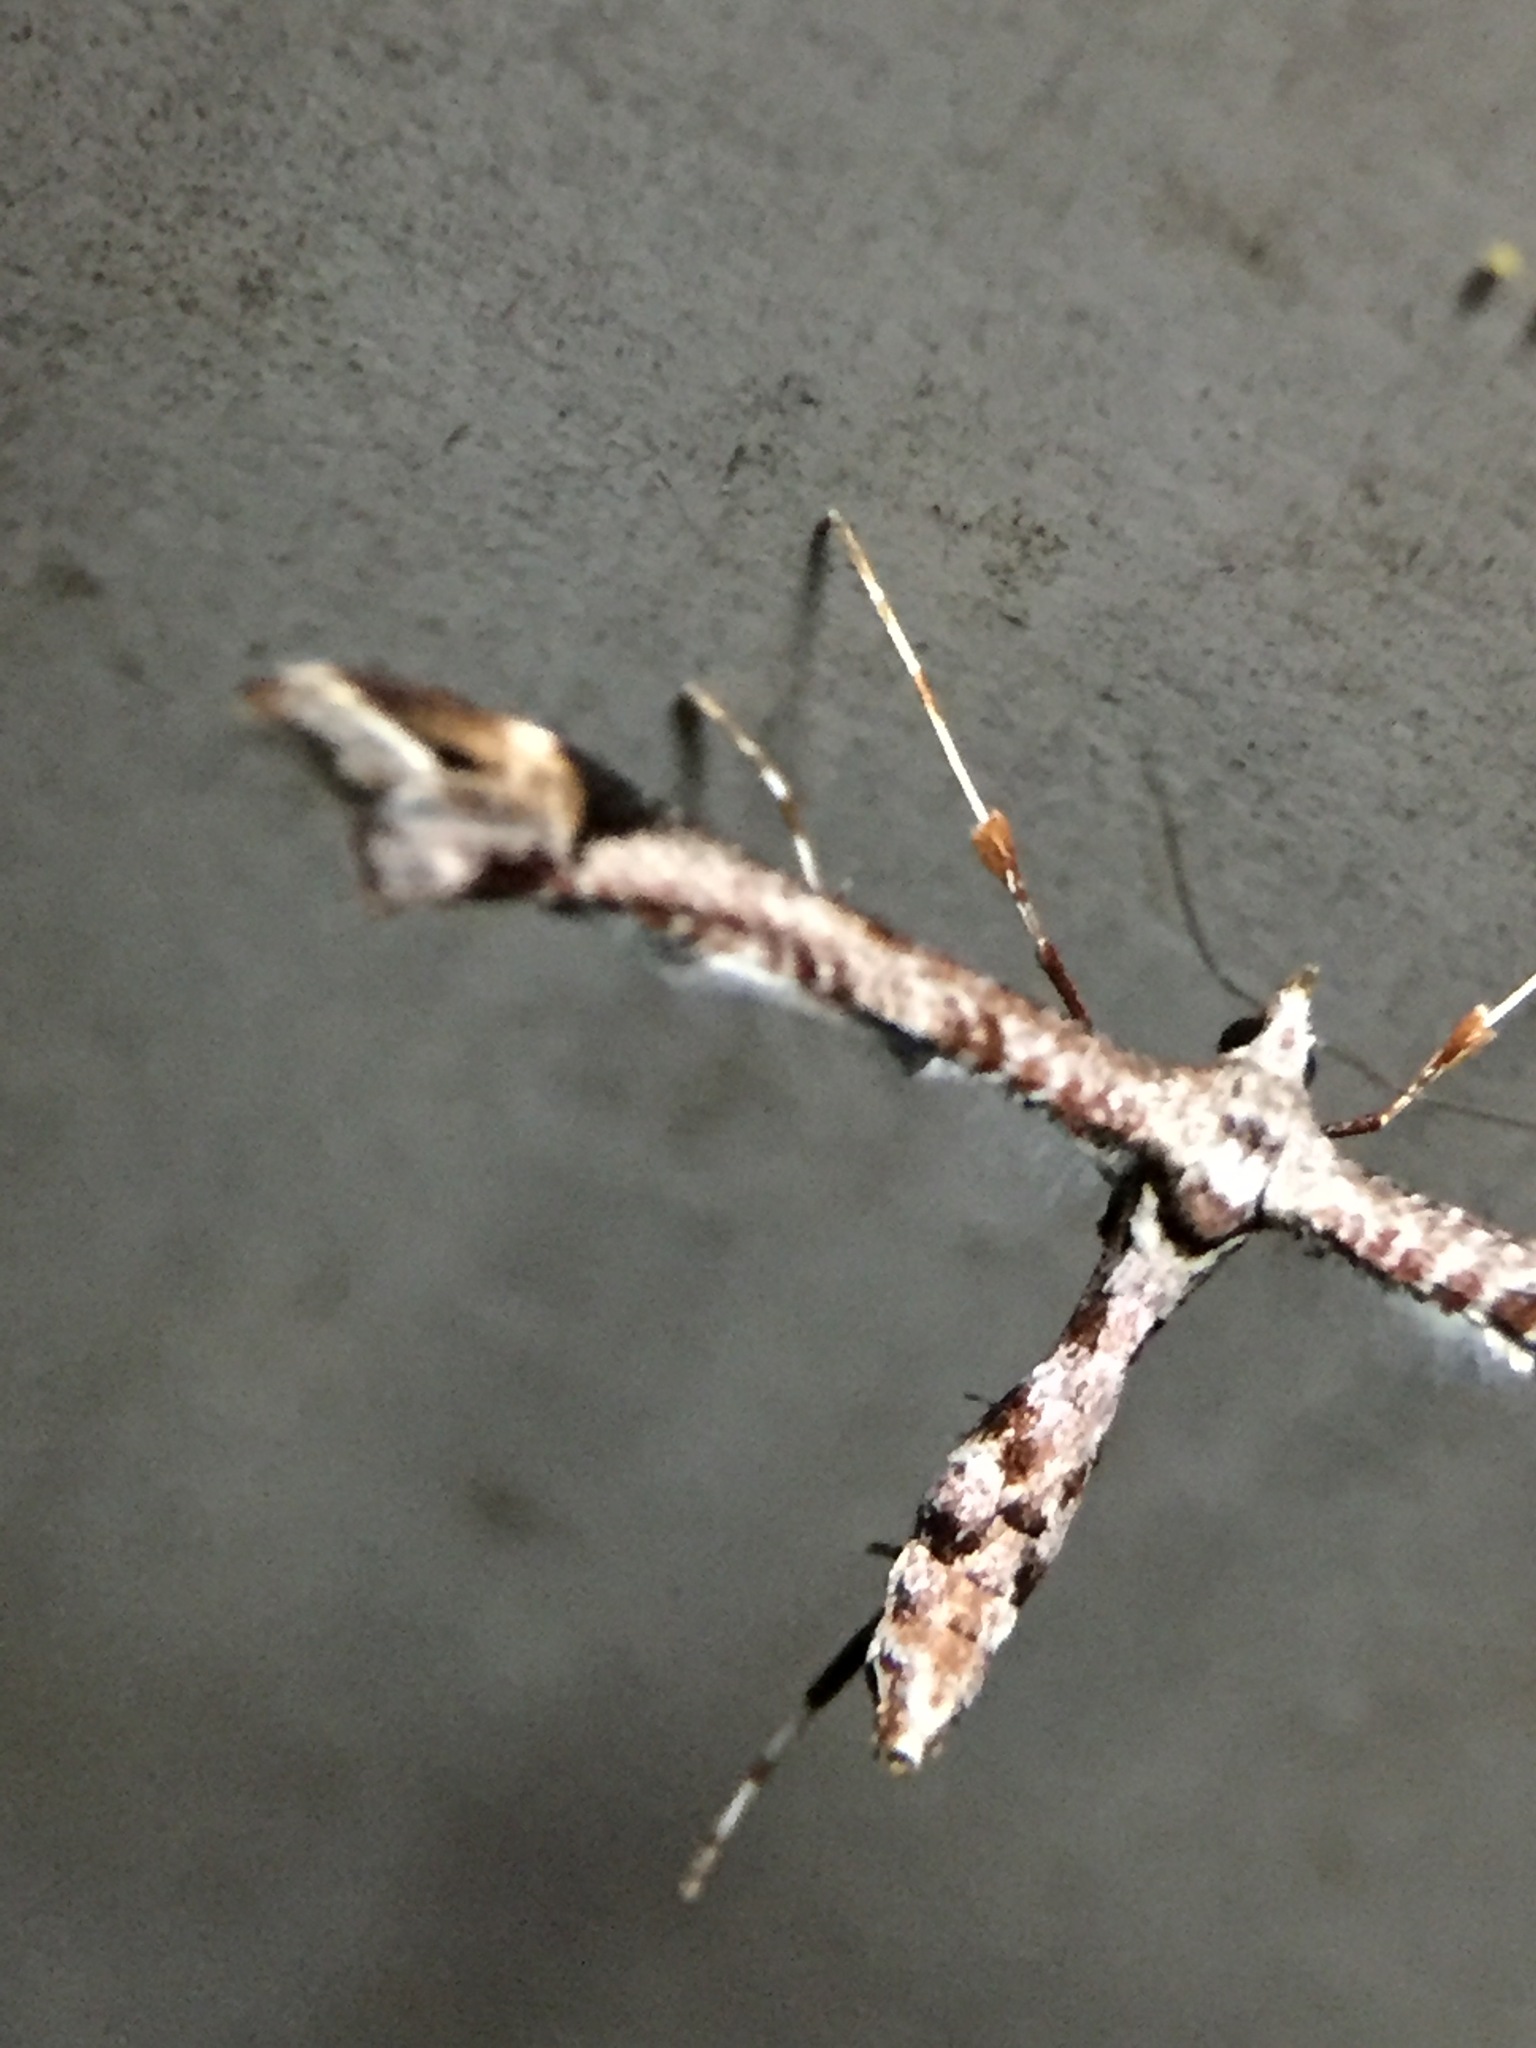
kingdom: Animalia
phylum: Arthropoda
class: Insecta
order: Lepidoptera
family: Pterophoridae
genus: Amblyptilia
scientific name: Amblyptilia falcatalis
